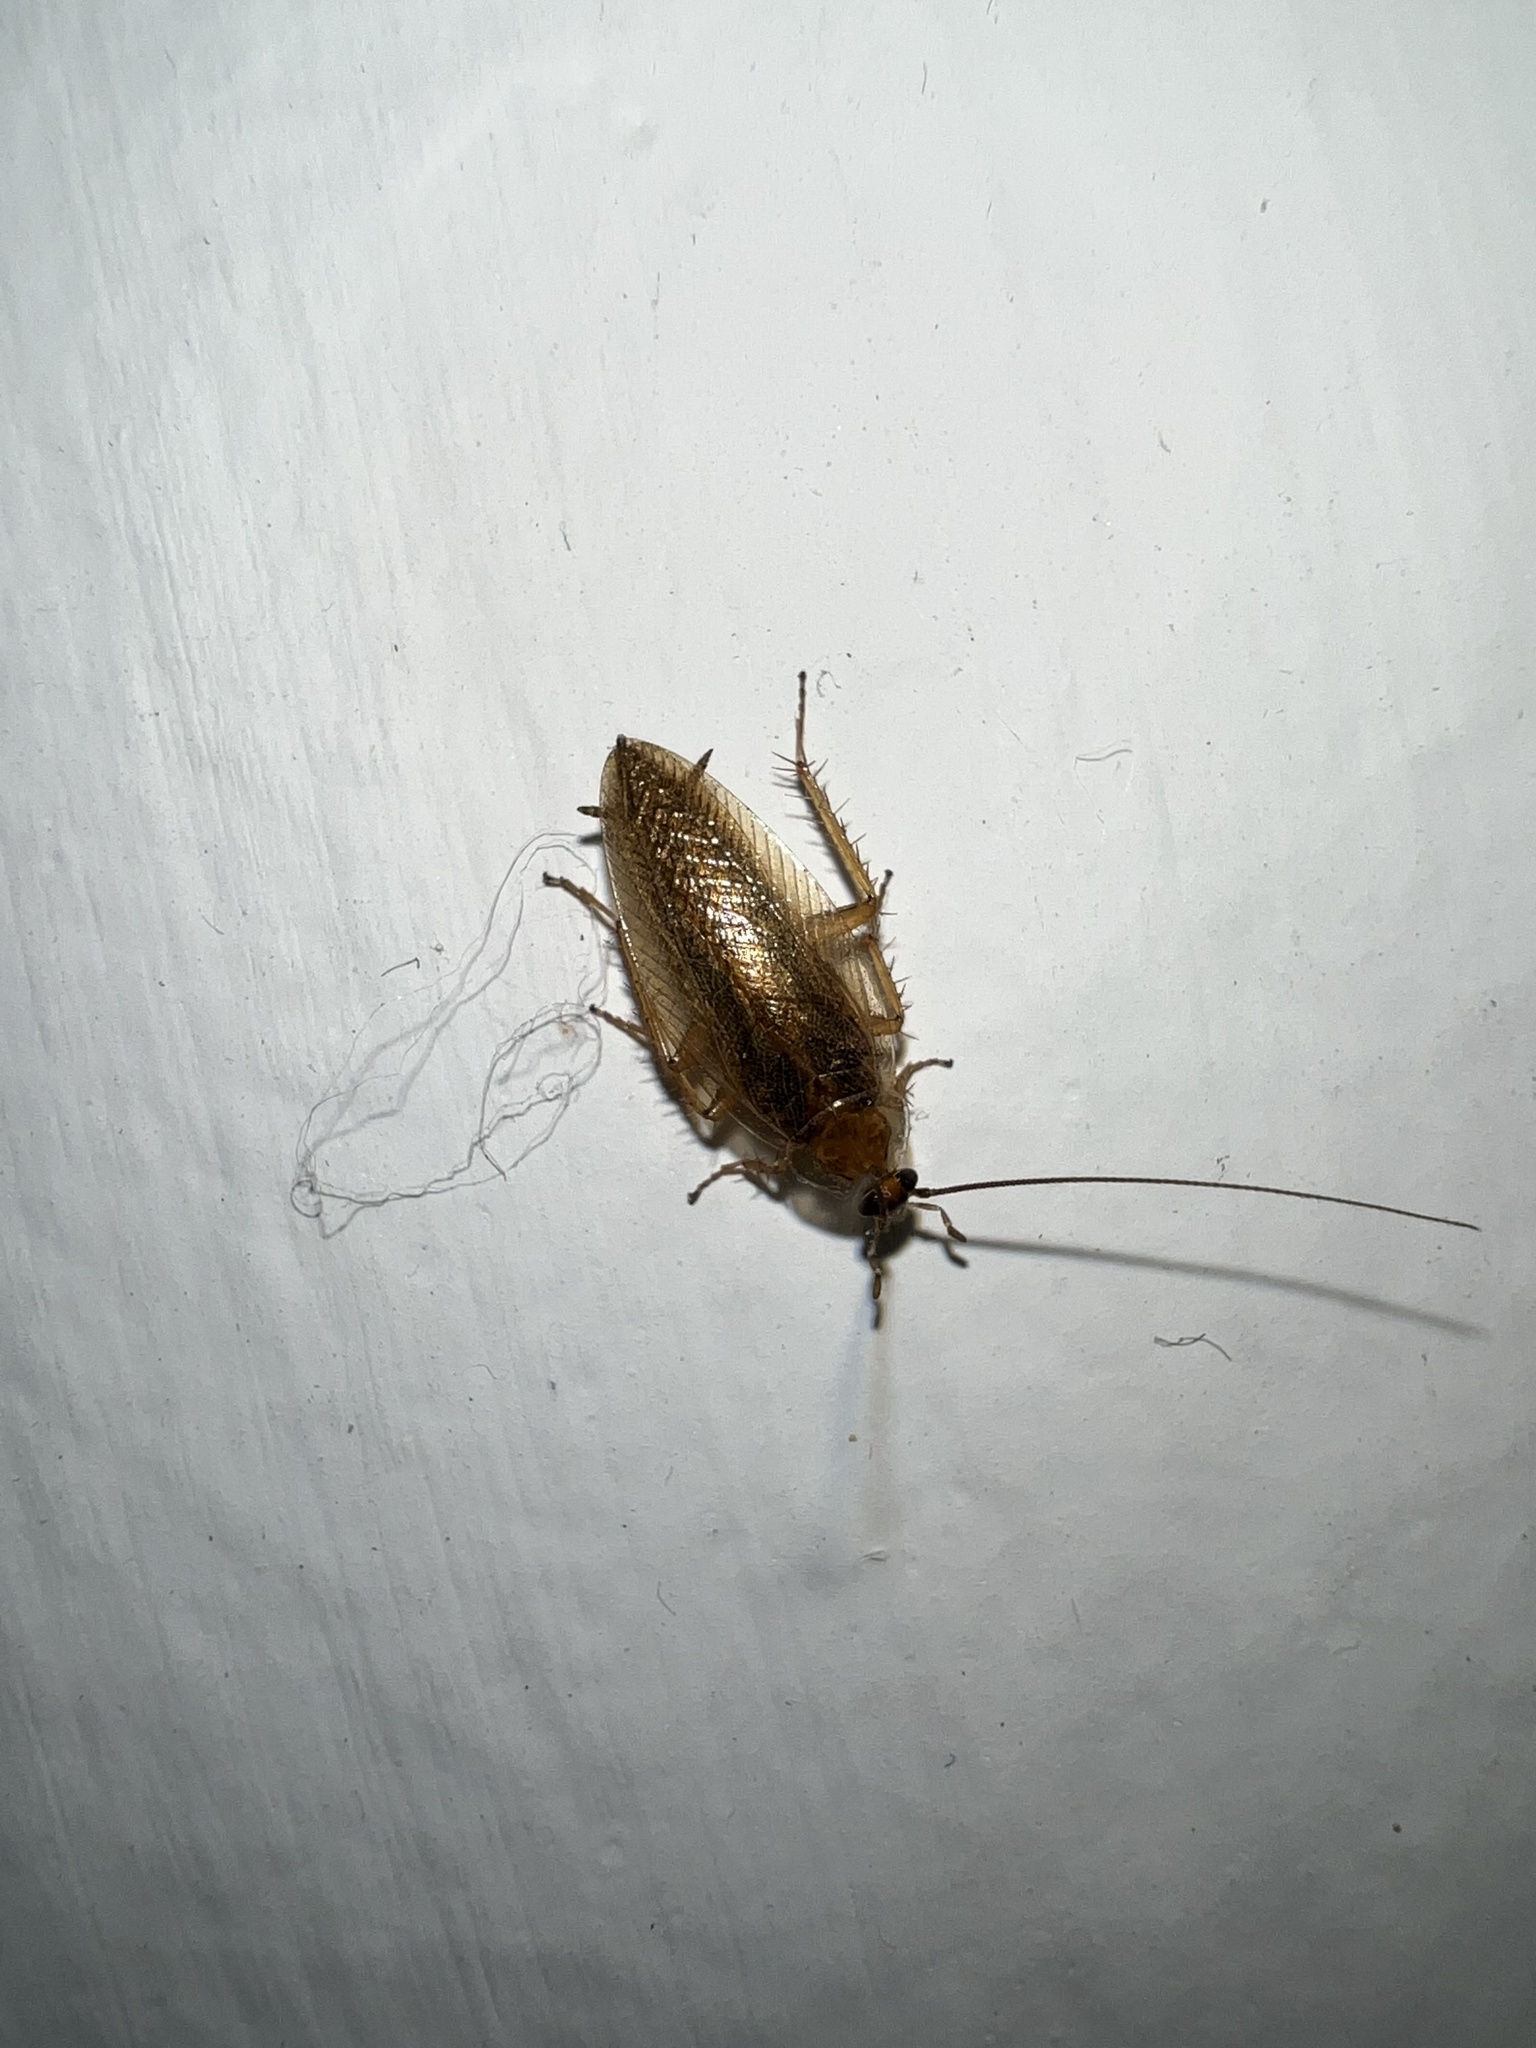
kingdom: Animalia
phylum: Arthropoda
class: Insecta
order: Blattodea
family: Ectobiidae
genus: Ectobius
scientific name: Ectobius vittiventris
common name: Garden cockroach
